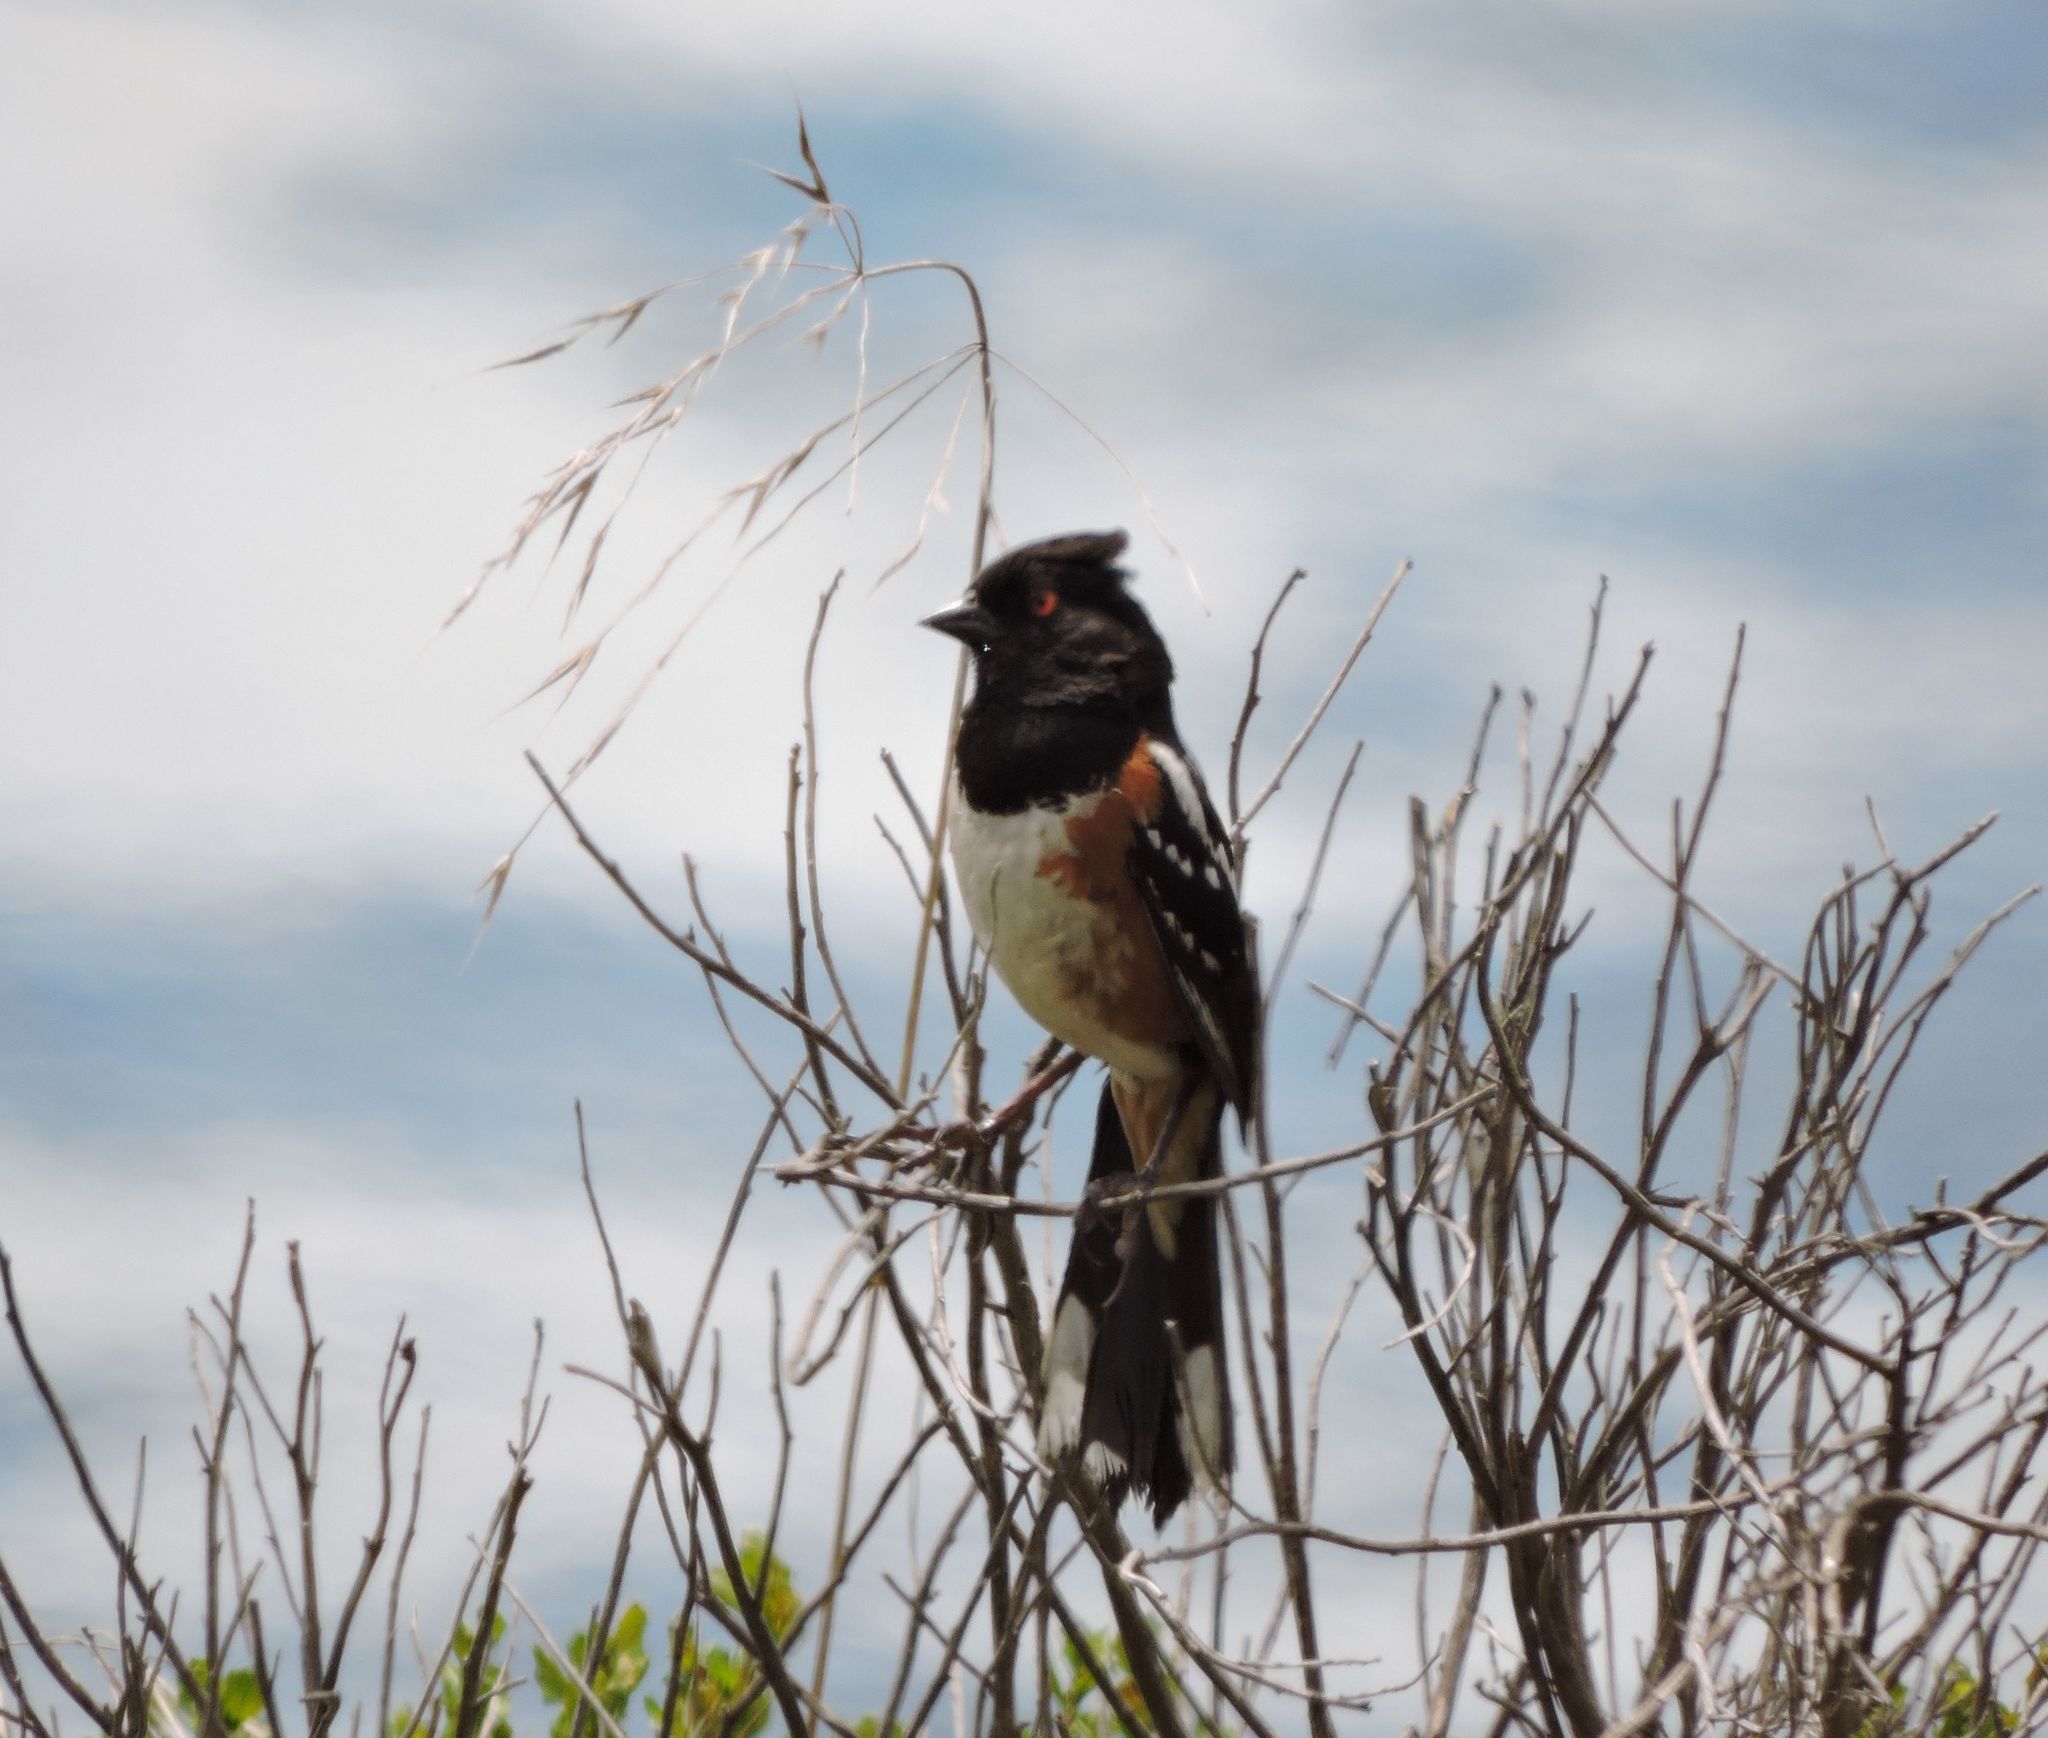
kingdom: Animalia
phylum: Chordata
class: Aves
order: Passeriformes
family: Passerellidae
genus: Pipilo
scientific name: Pipilo maculatus
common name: Spotted towhee
